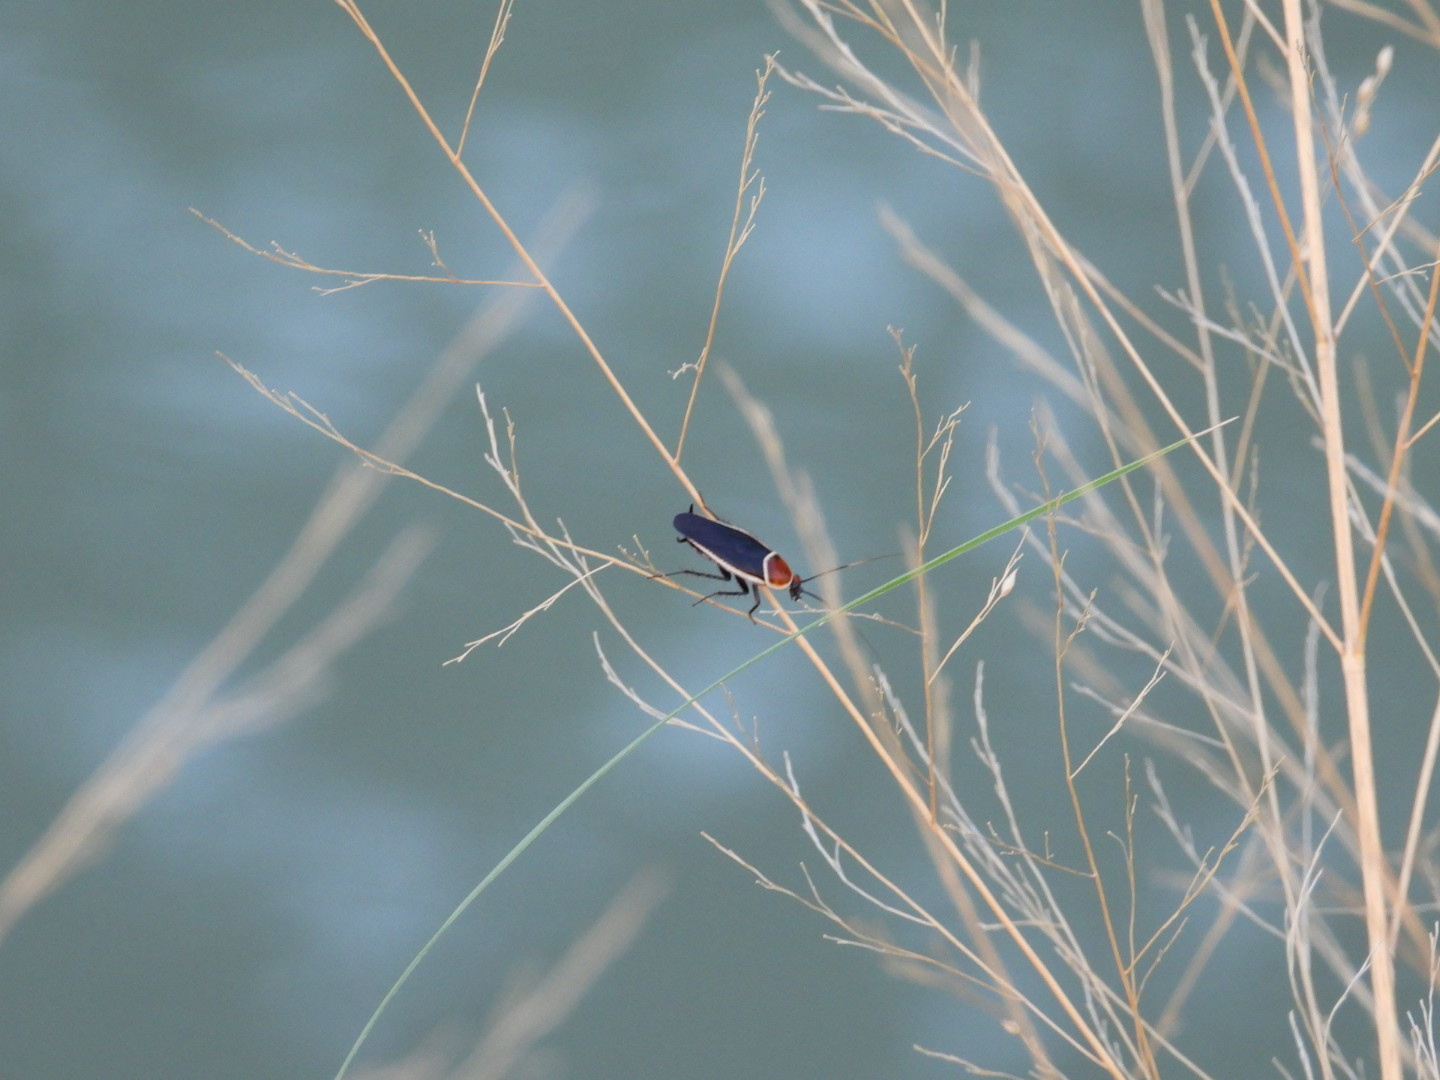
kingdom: Animalia
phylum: Arthropoda
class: Insecta
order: Blattodea
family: Ectobiidae
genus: Pseudomops
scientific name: Pseudomops septentrionalis
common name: Pale-bordered field cockroach
